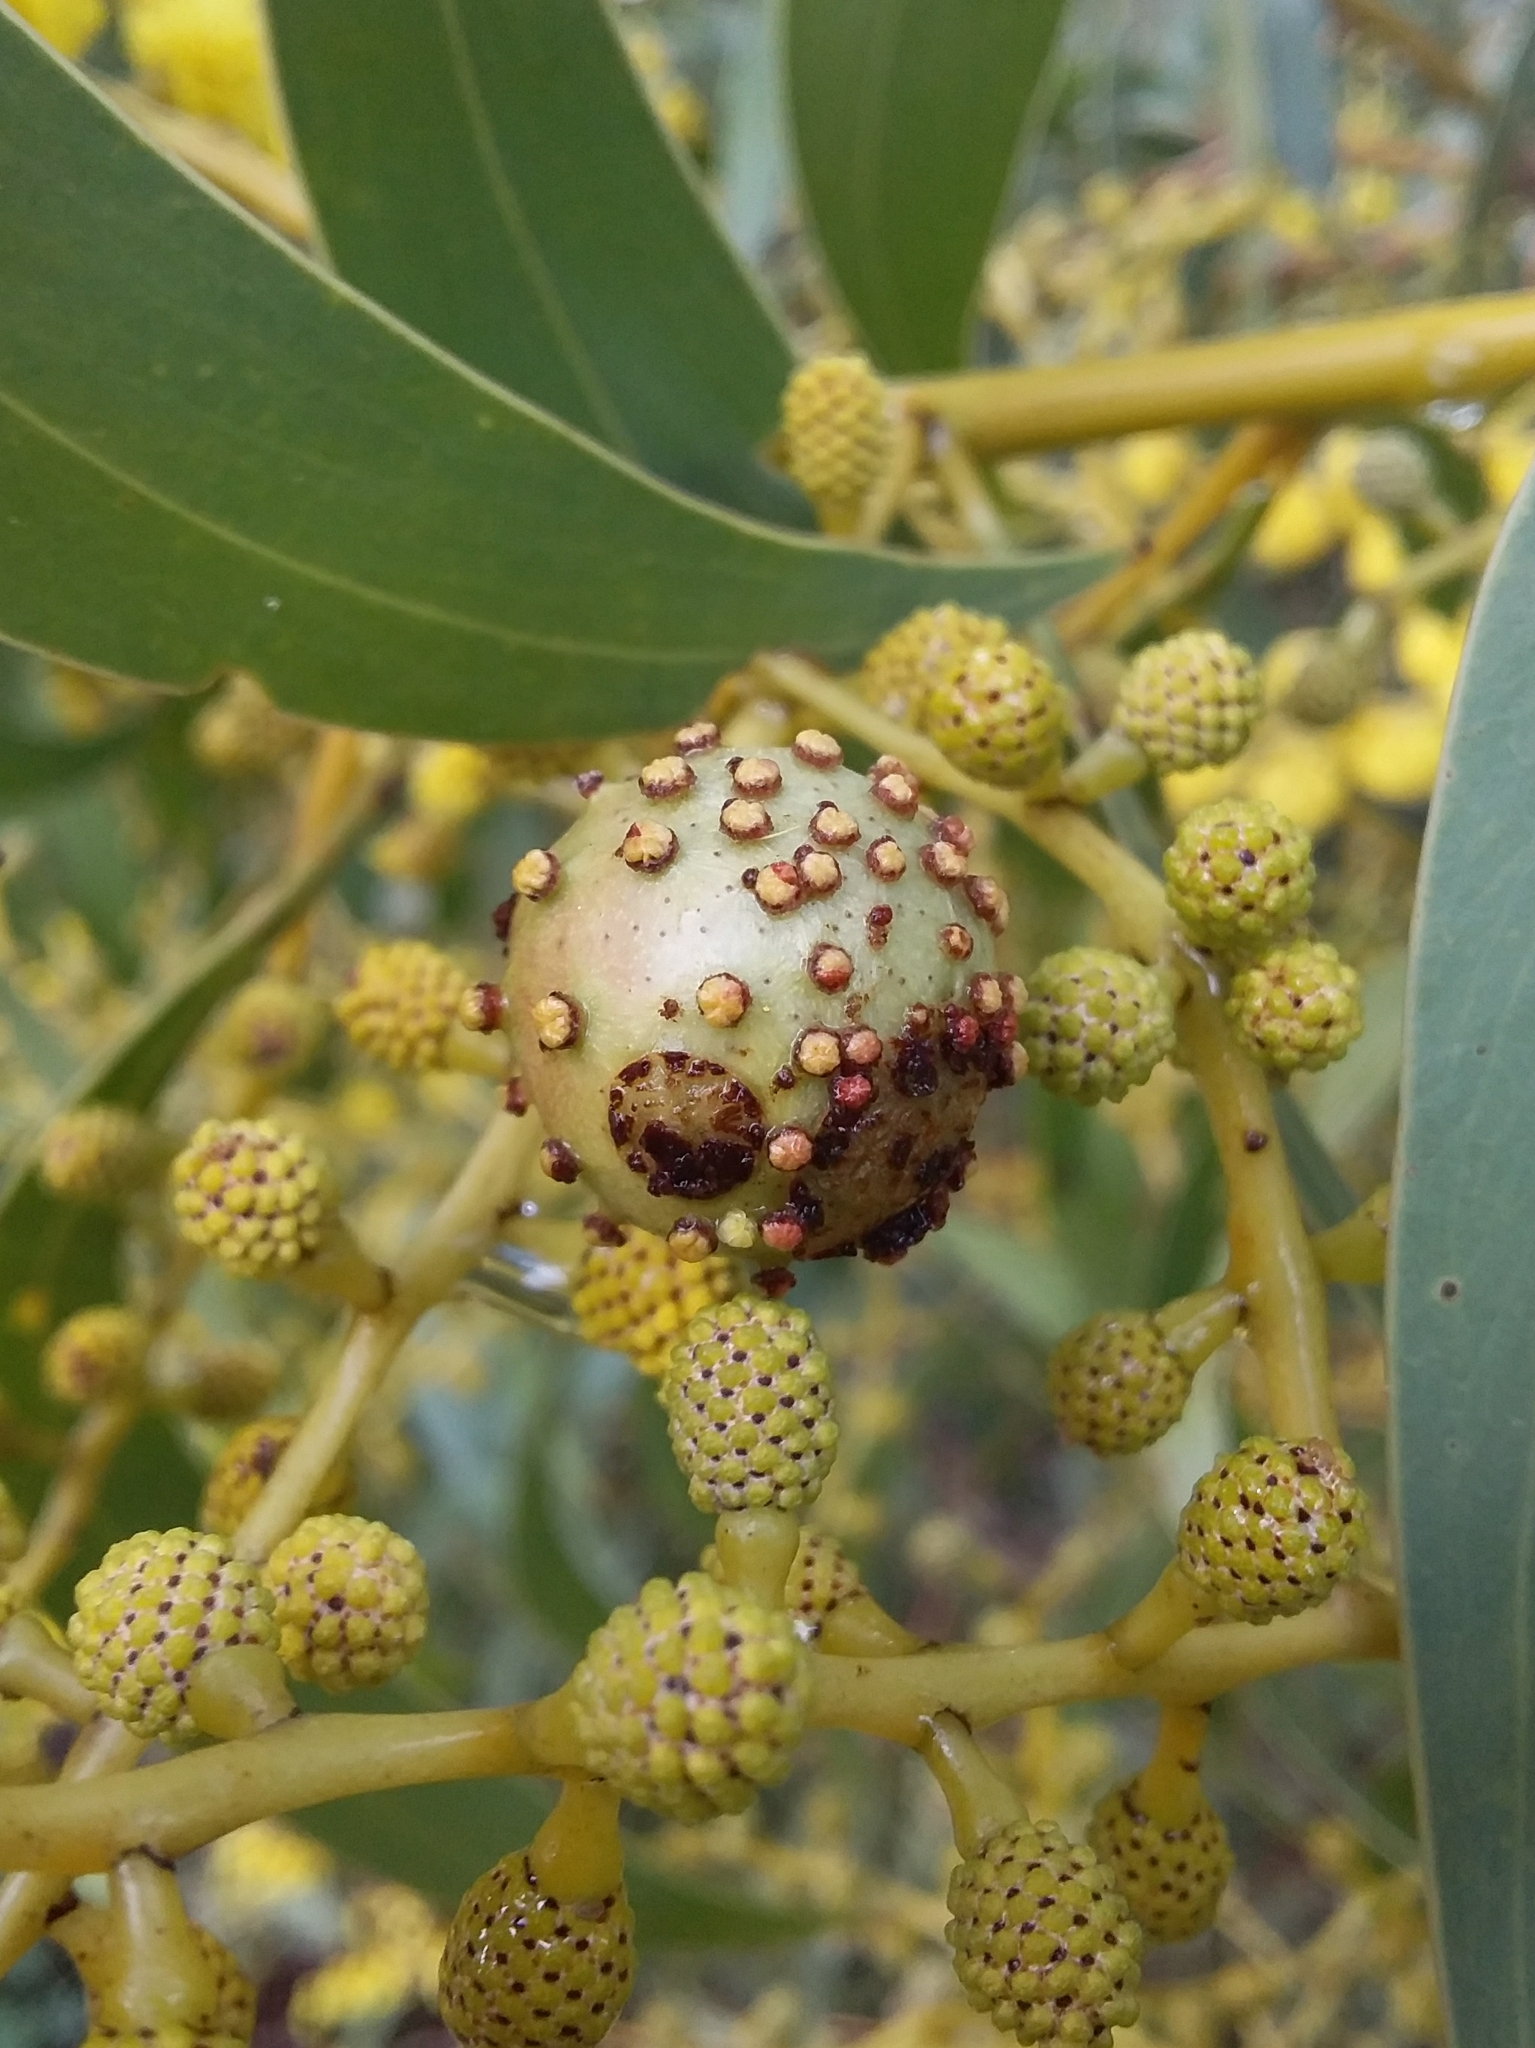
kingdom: Animalia
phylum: Arthropoda
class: Insecta
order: Hymenoptera
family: Pteromalidae
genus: Trichilogaster
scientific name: Trichilogaster signiventris
